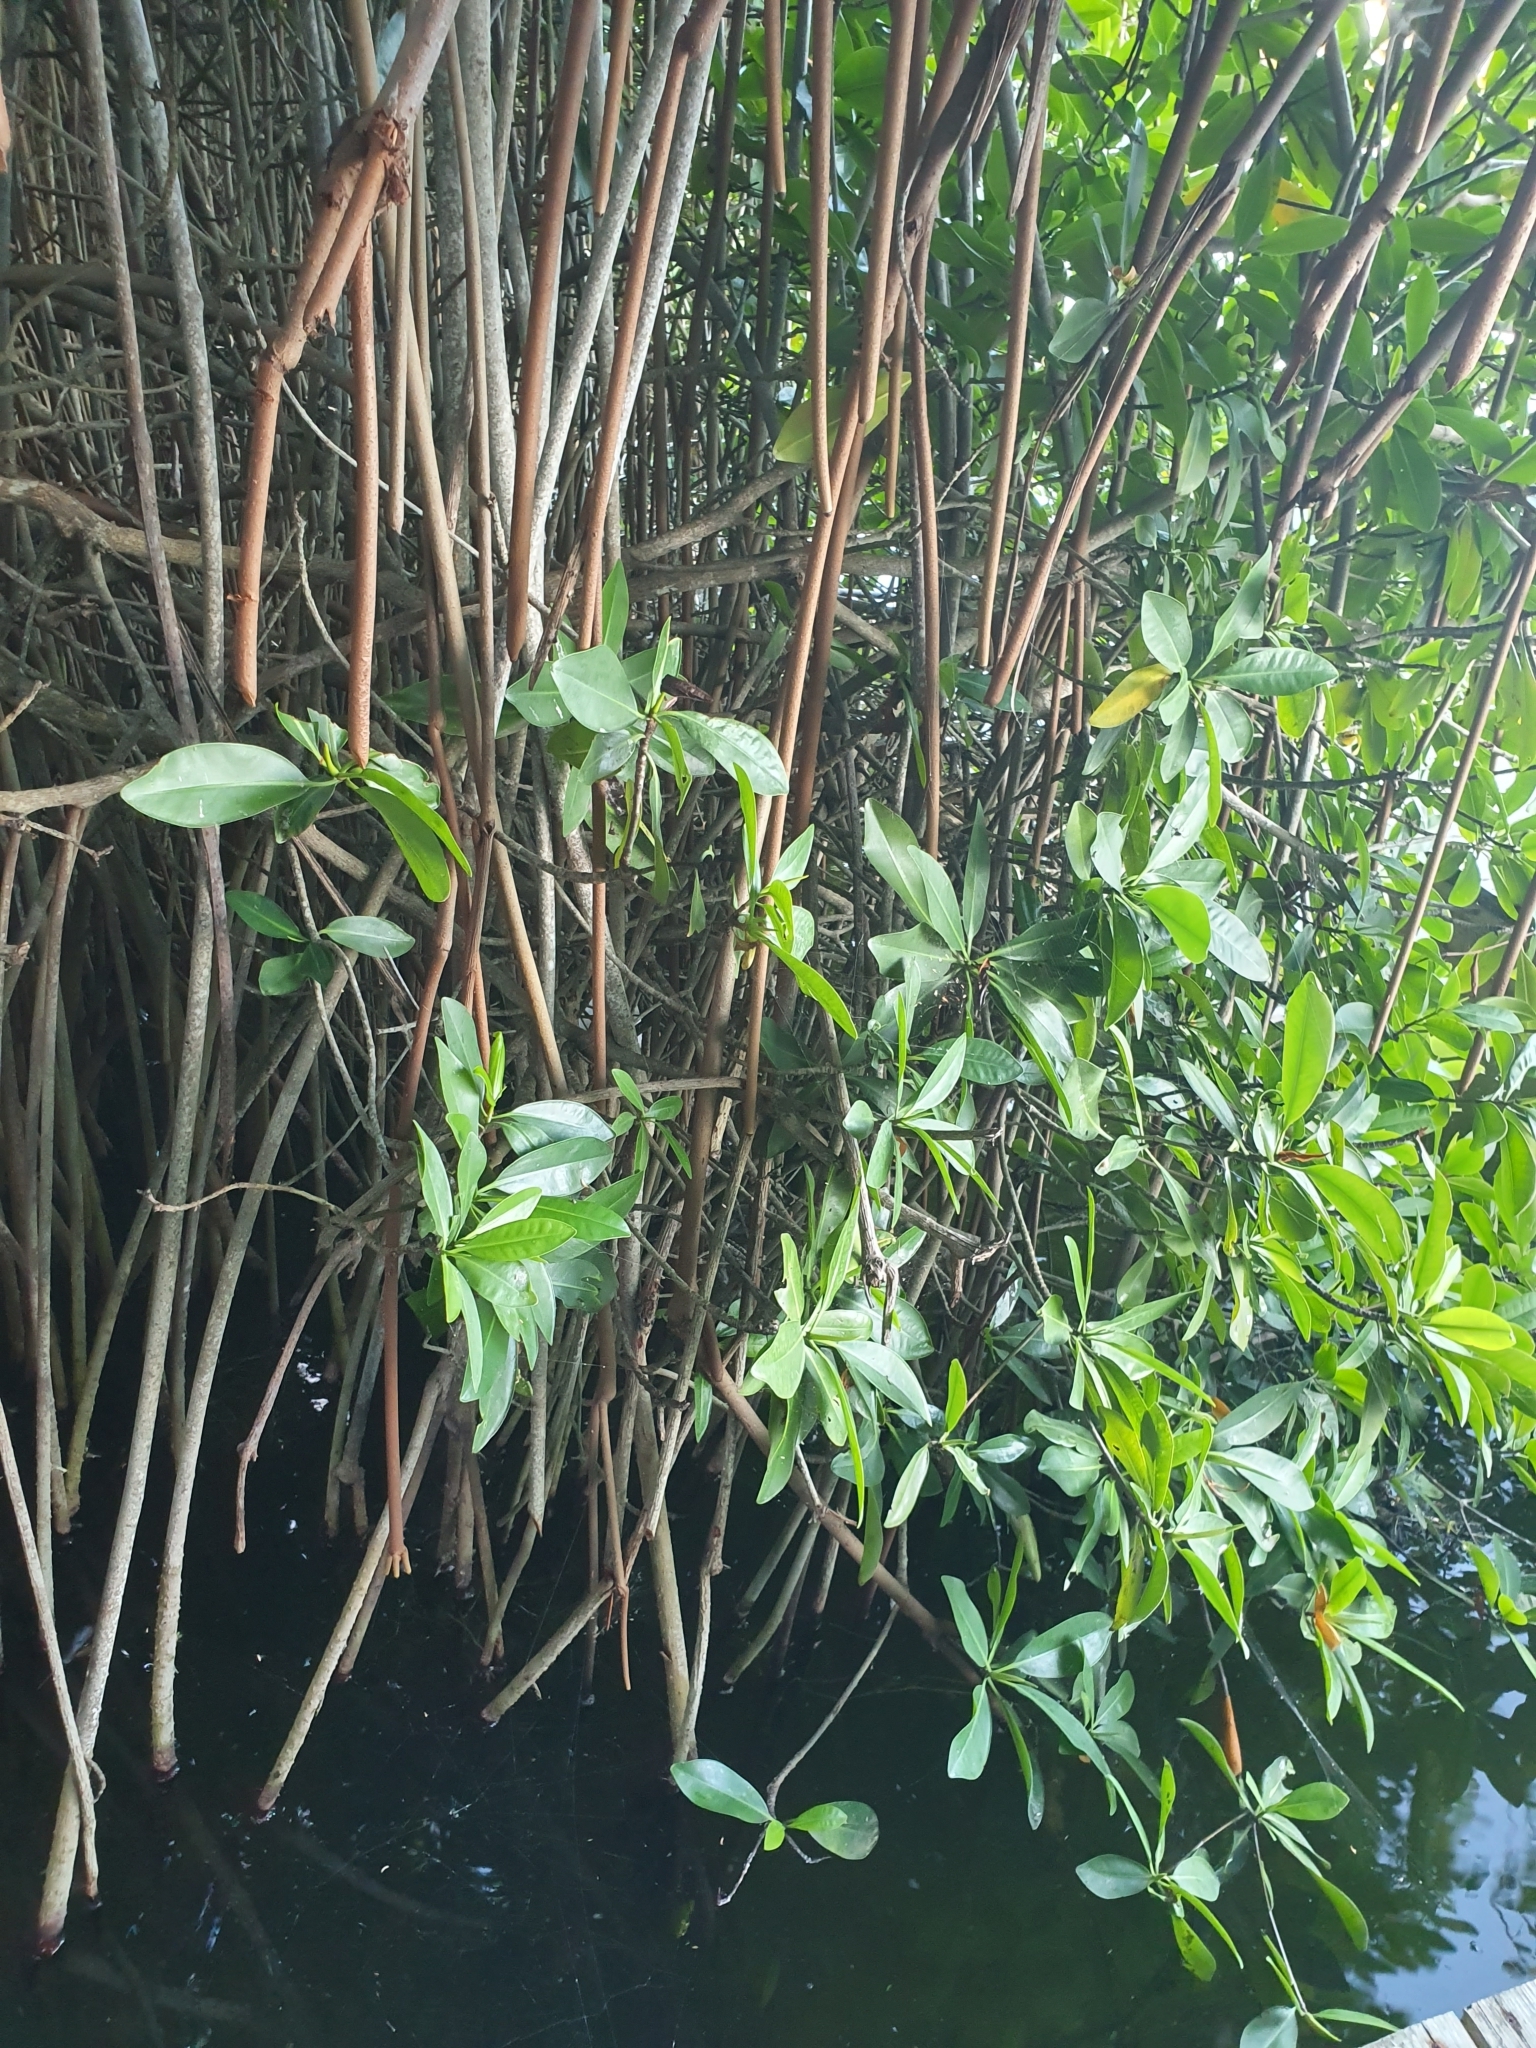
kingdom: Plantae
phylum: Tracheophyta
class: Magnoliopsida
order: Malpighiales
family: Rhizophoraceae
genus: Rhizophora
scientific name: Rhizophora mangle
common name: Red mangrove
